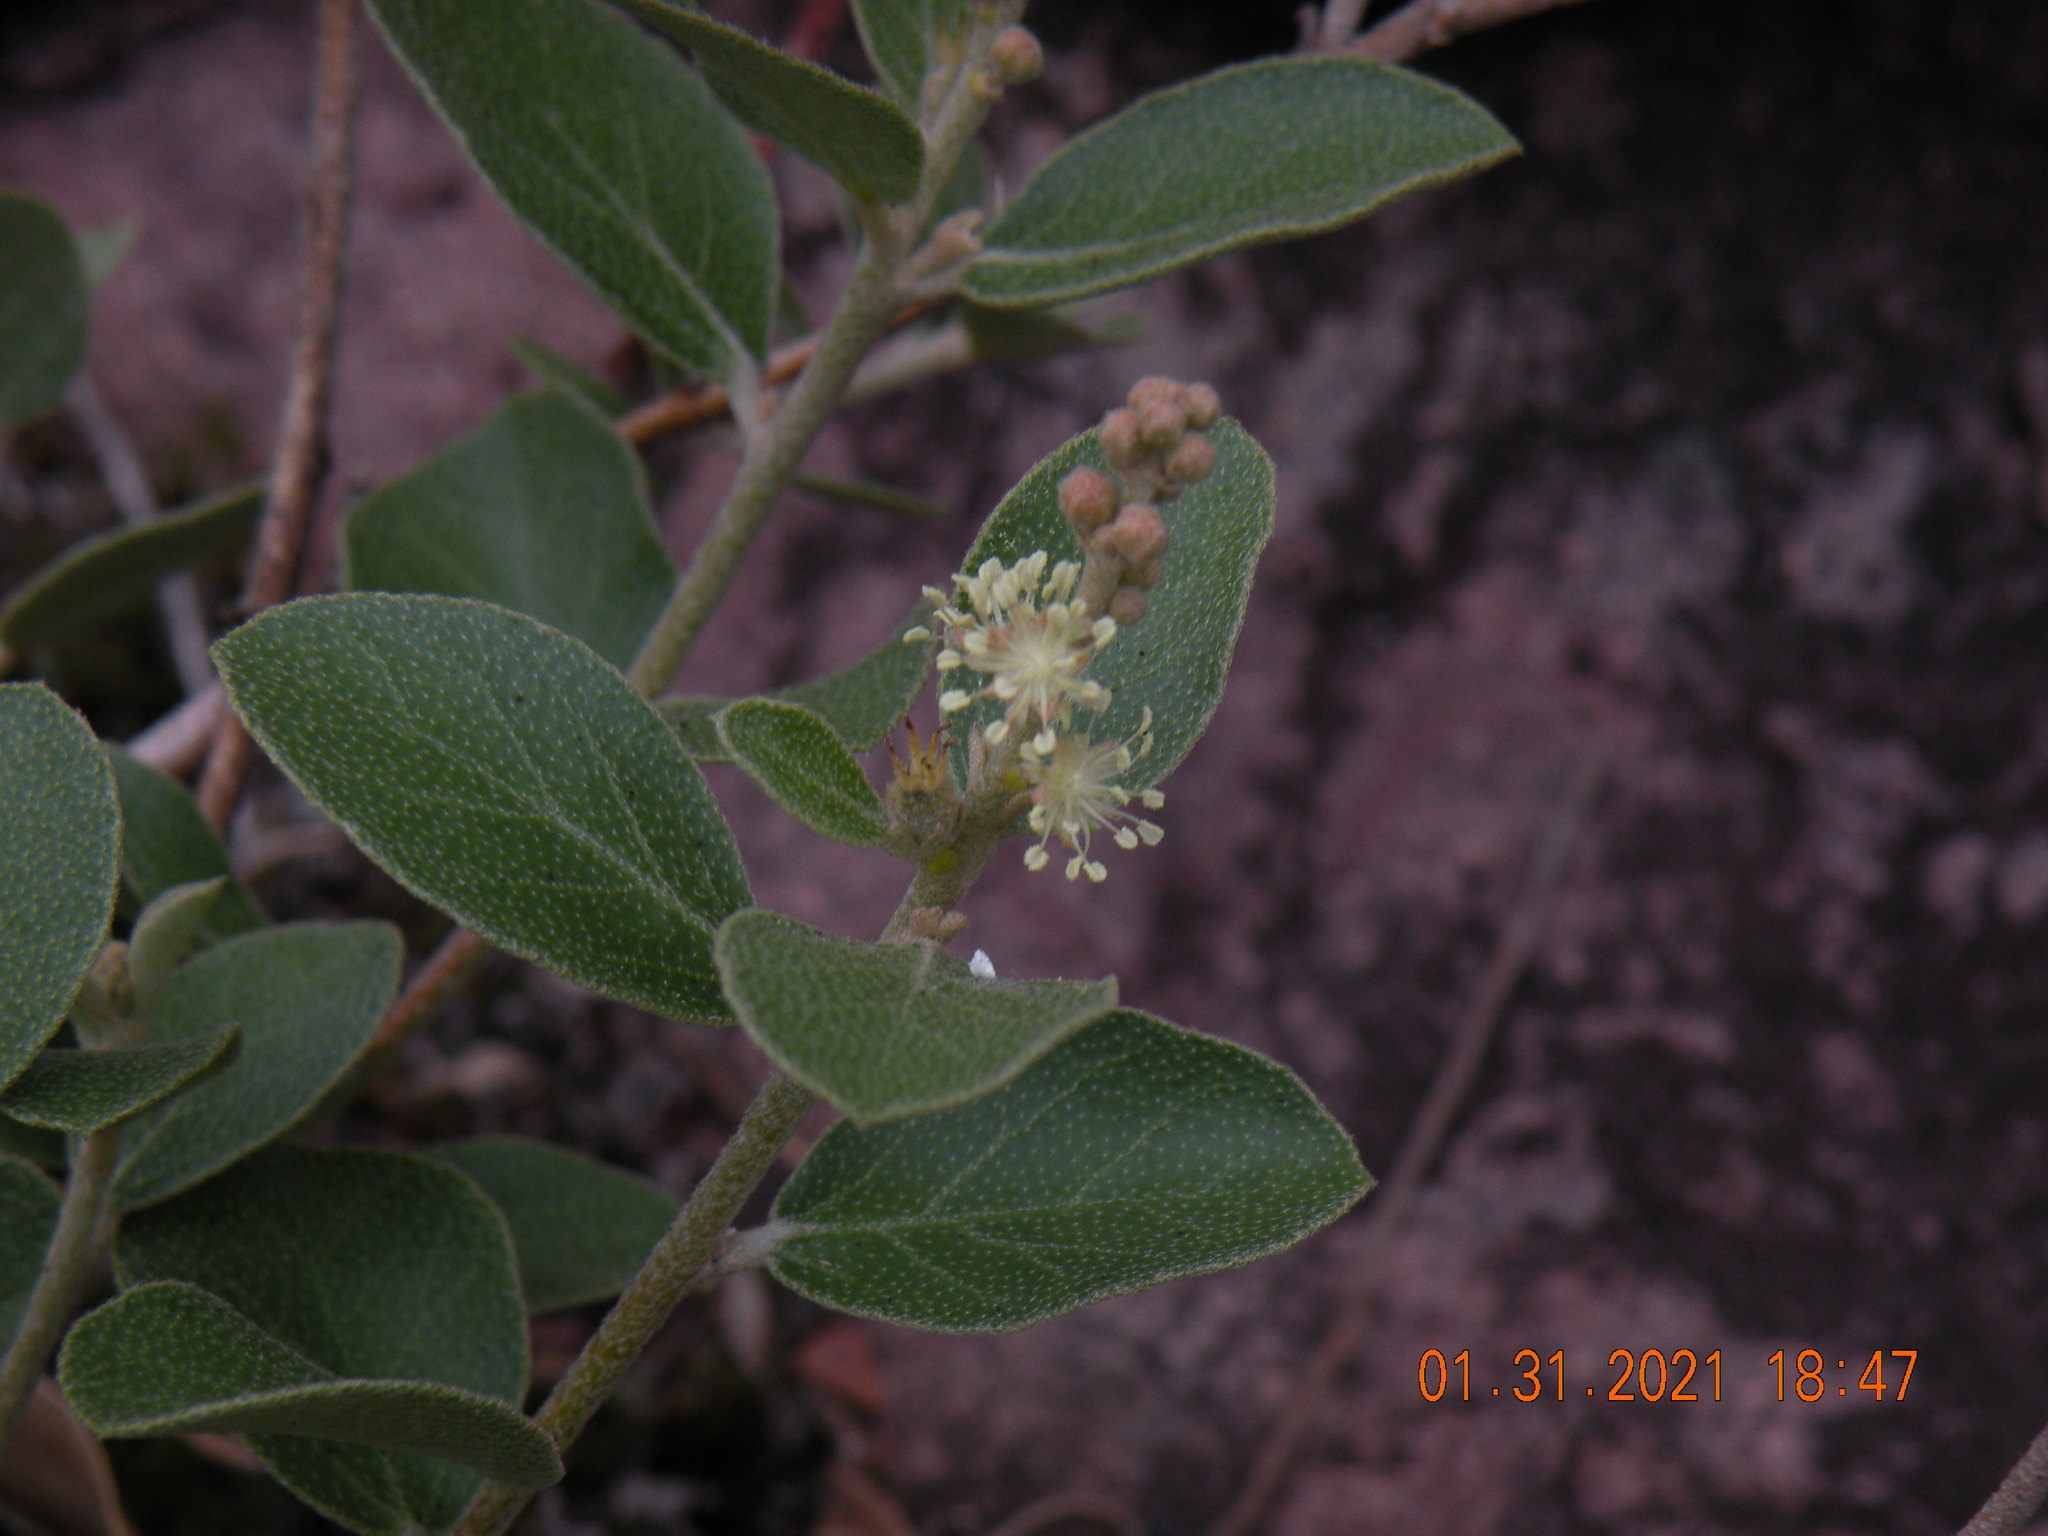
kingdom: Plantae
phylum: Tracheophyta
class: Magnoliopsida
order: Malpighiales
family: Euphorbiaceae
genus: Croton
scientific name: Croton lanatus
